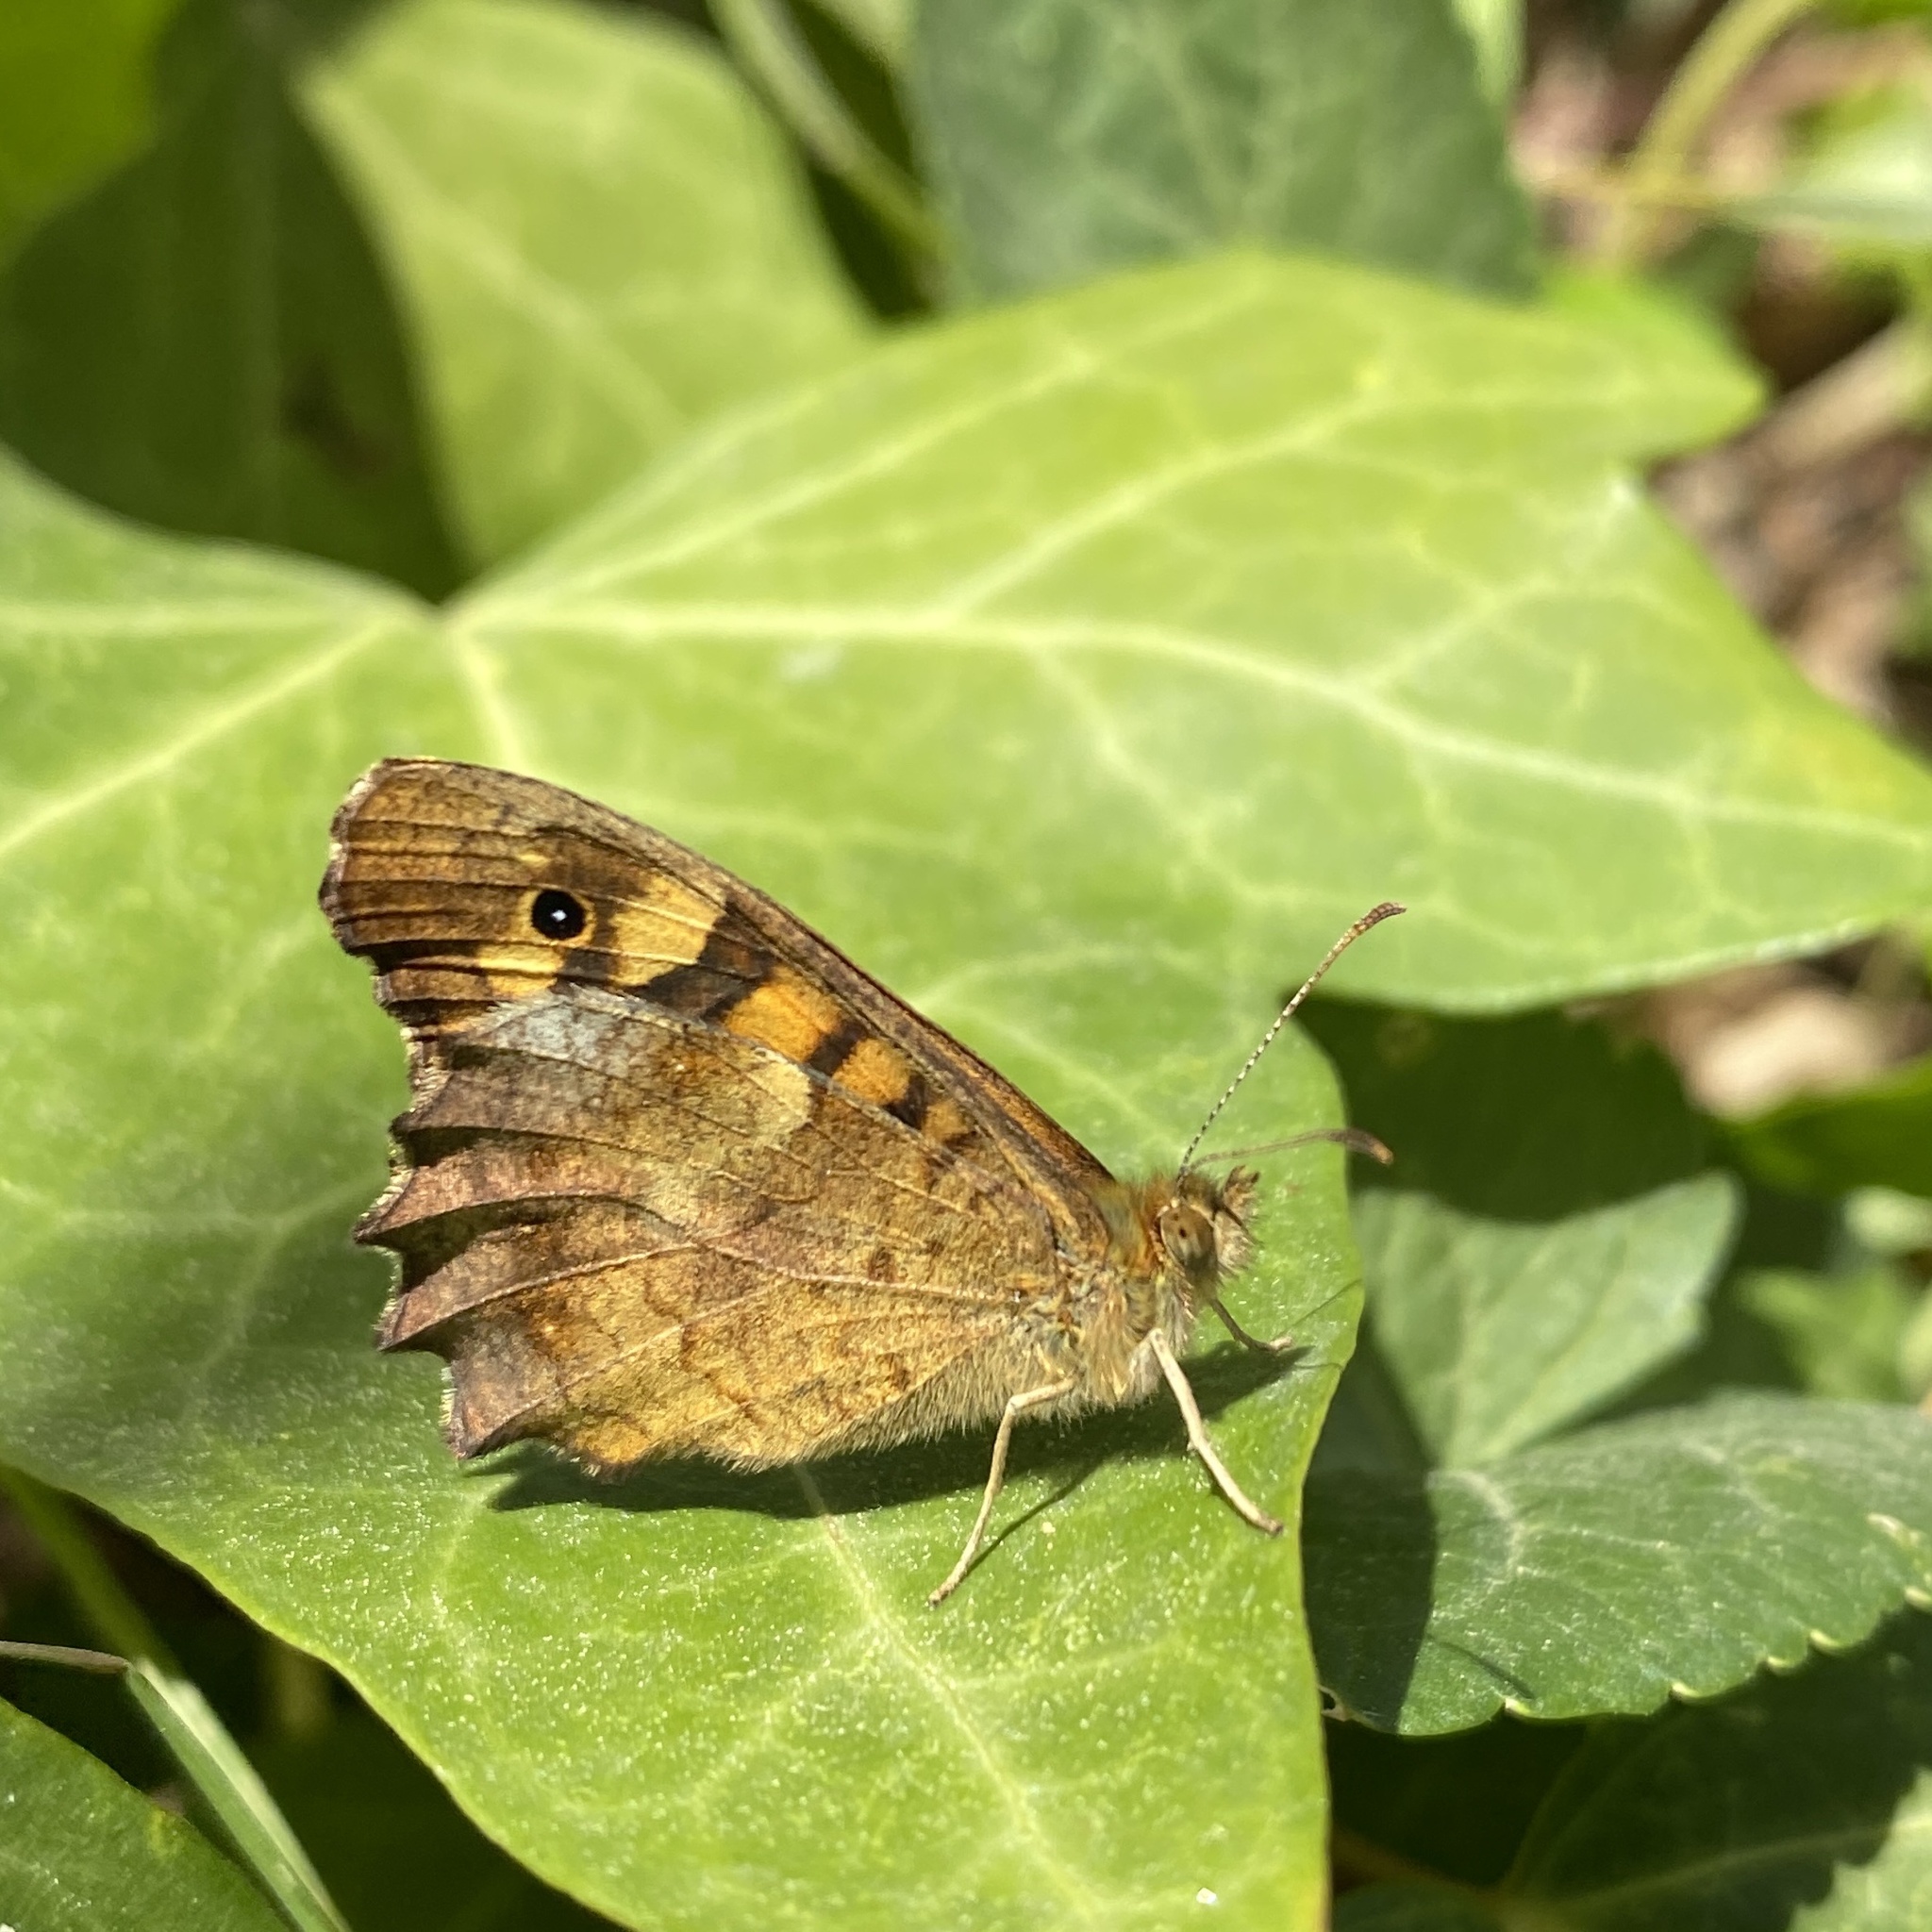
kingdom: Animalia
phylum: Arthropoda
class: Insecta
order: Lepidoptera
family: Nymphalidae
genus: Pararge
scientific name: Pararge aegeria
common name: Speckled wood
